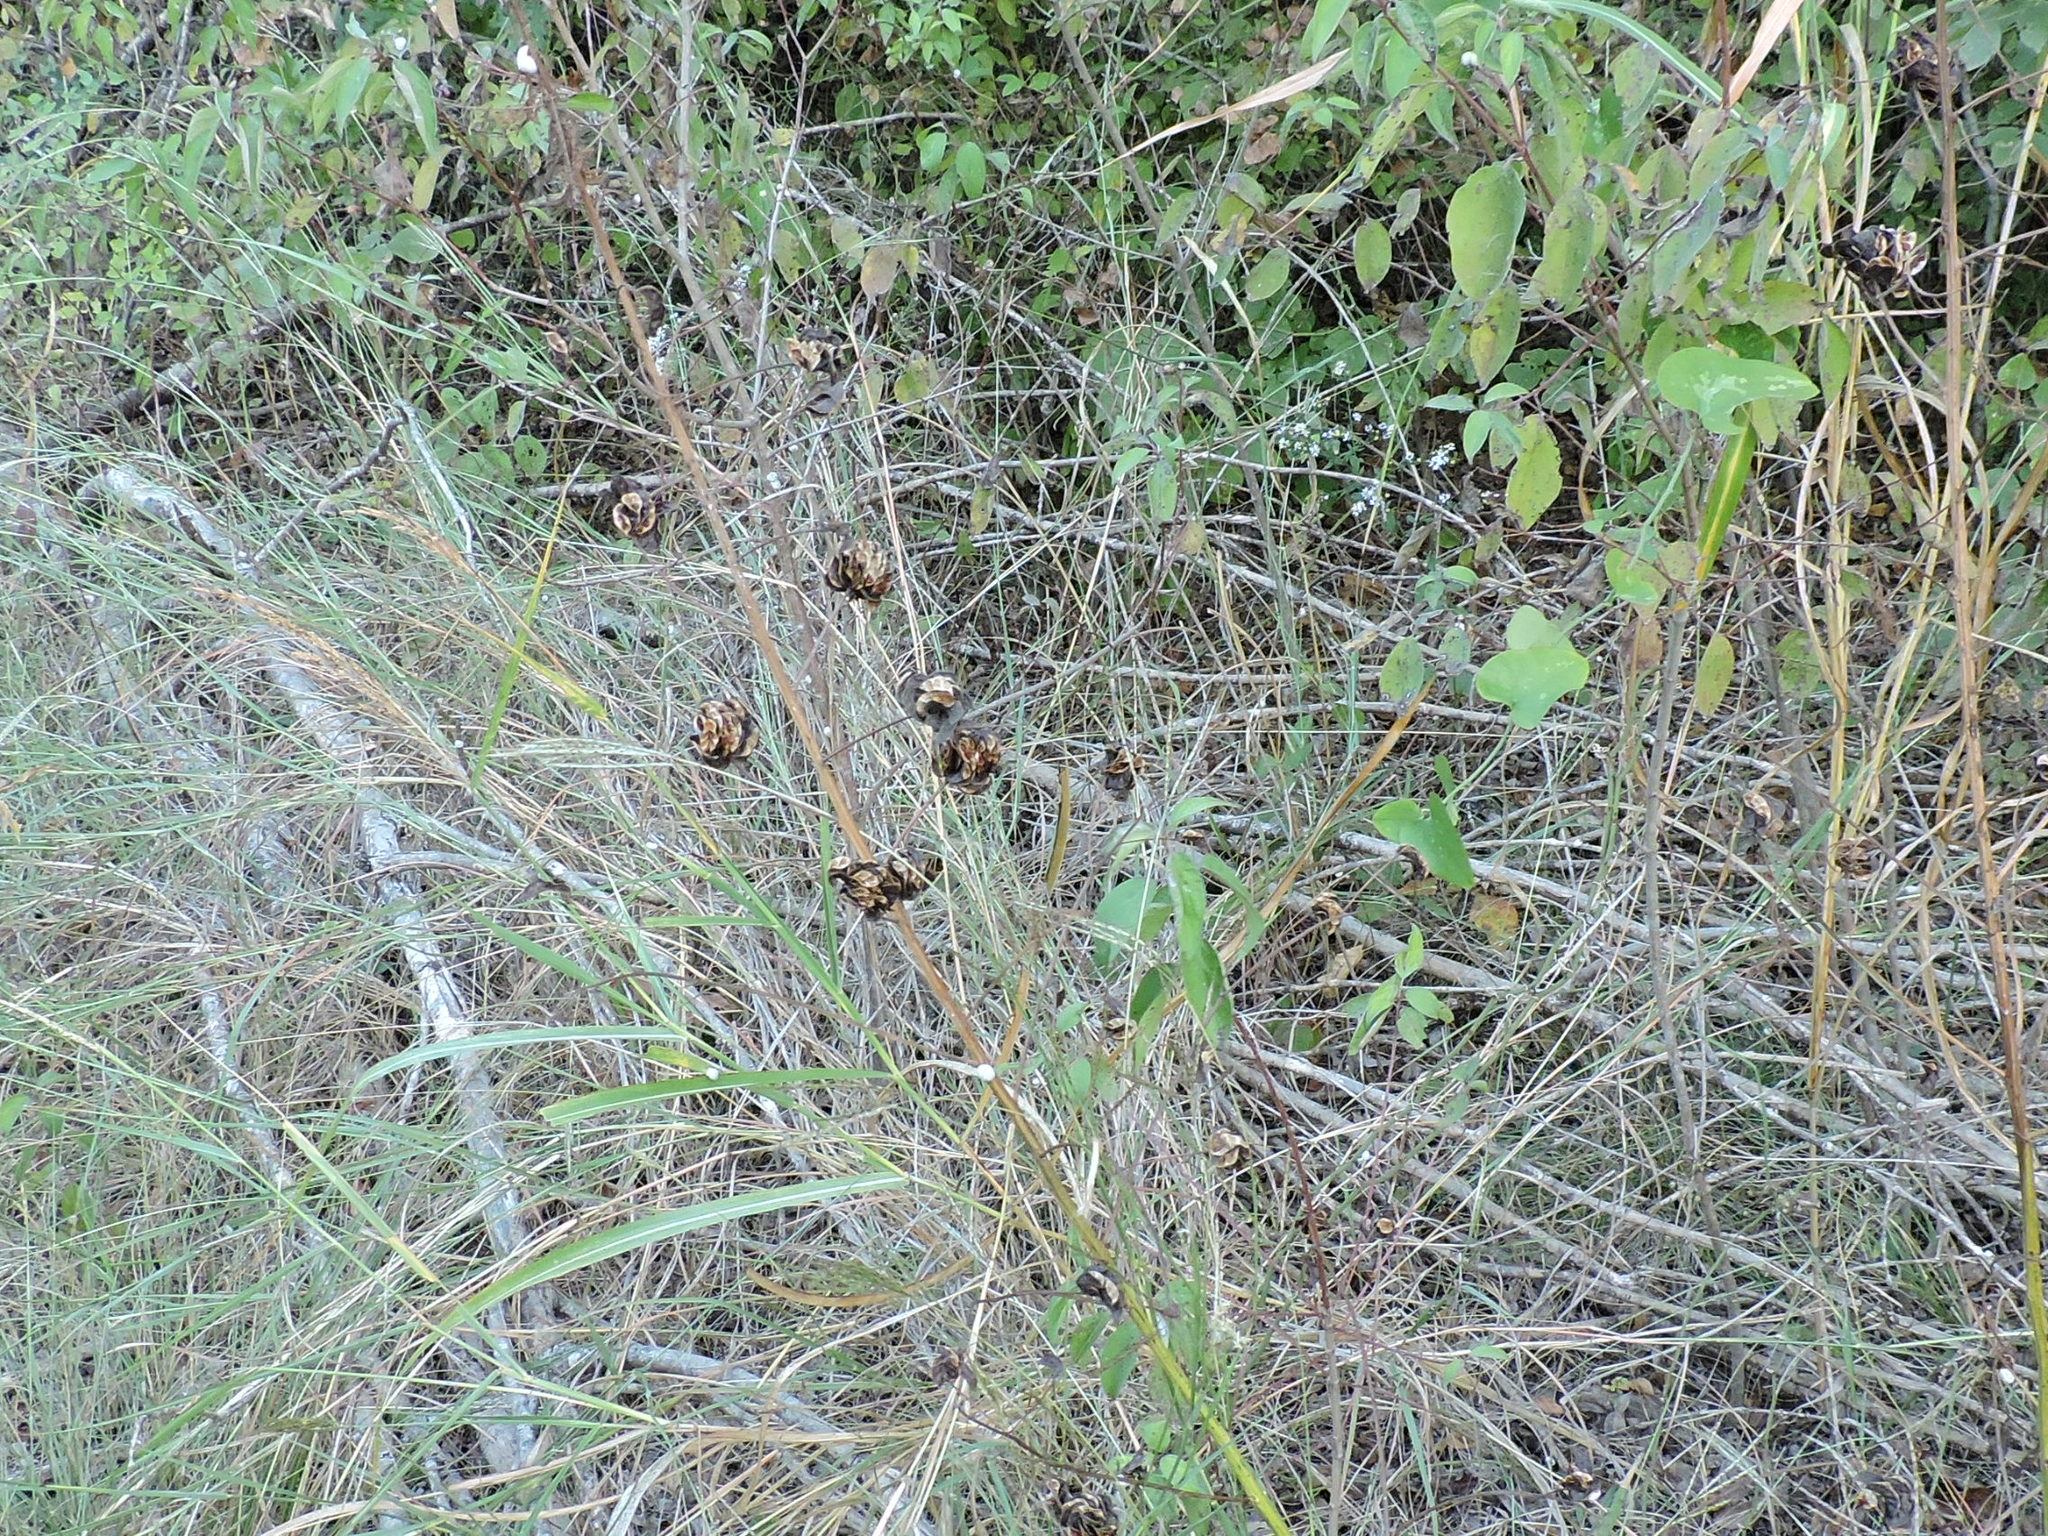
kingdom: Plantae
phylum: Tracheophyta
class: Magnoliopsida
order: Fabales
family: Fabaceae
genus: Desmanthus
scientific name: Desmanthus illinoensis
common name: Illinois bundle-flower
